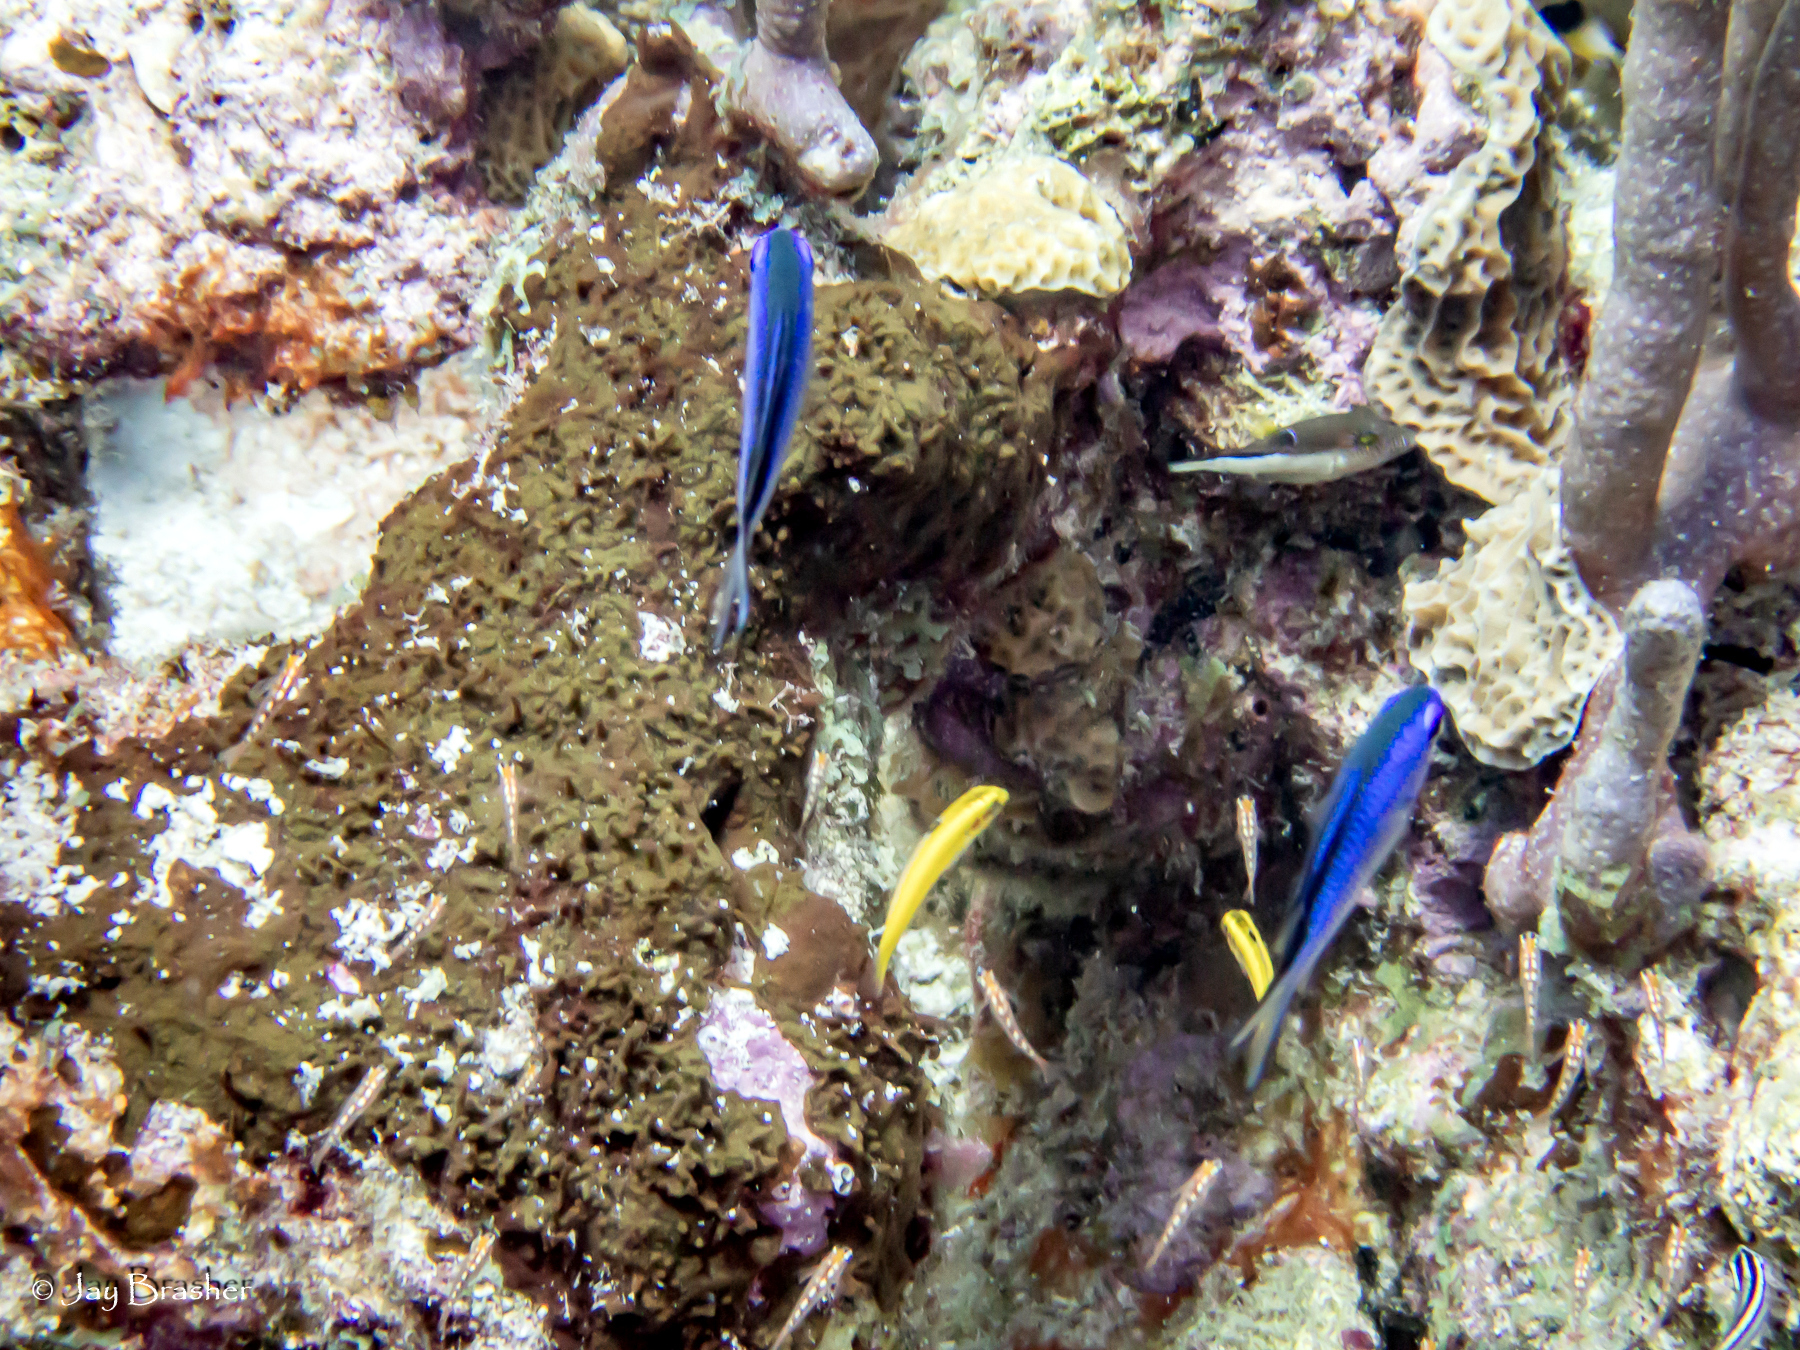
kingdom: Animalia
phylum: Chordata
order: Tetraodontiformes
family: Tetraodontidae
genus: Canthigaster
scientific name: Canthigaster rostrata
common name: Caribbean sharpnose-puffer
